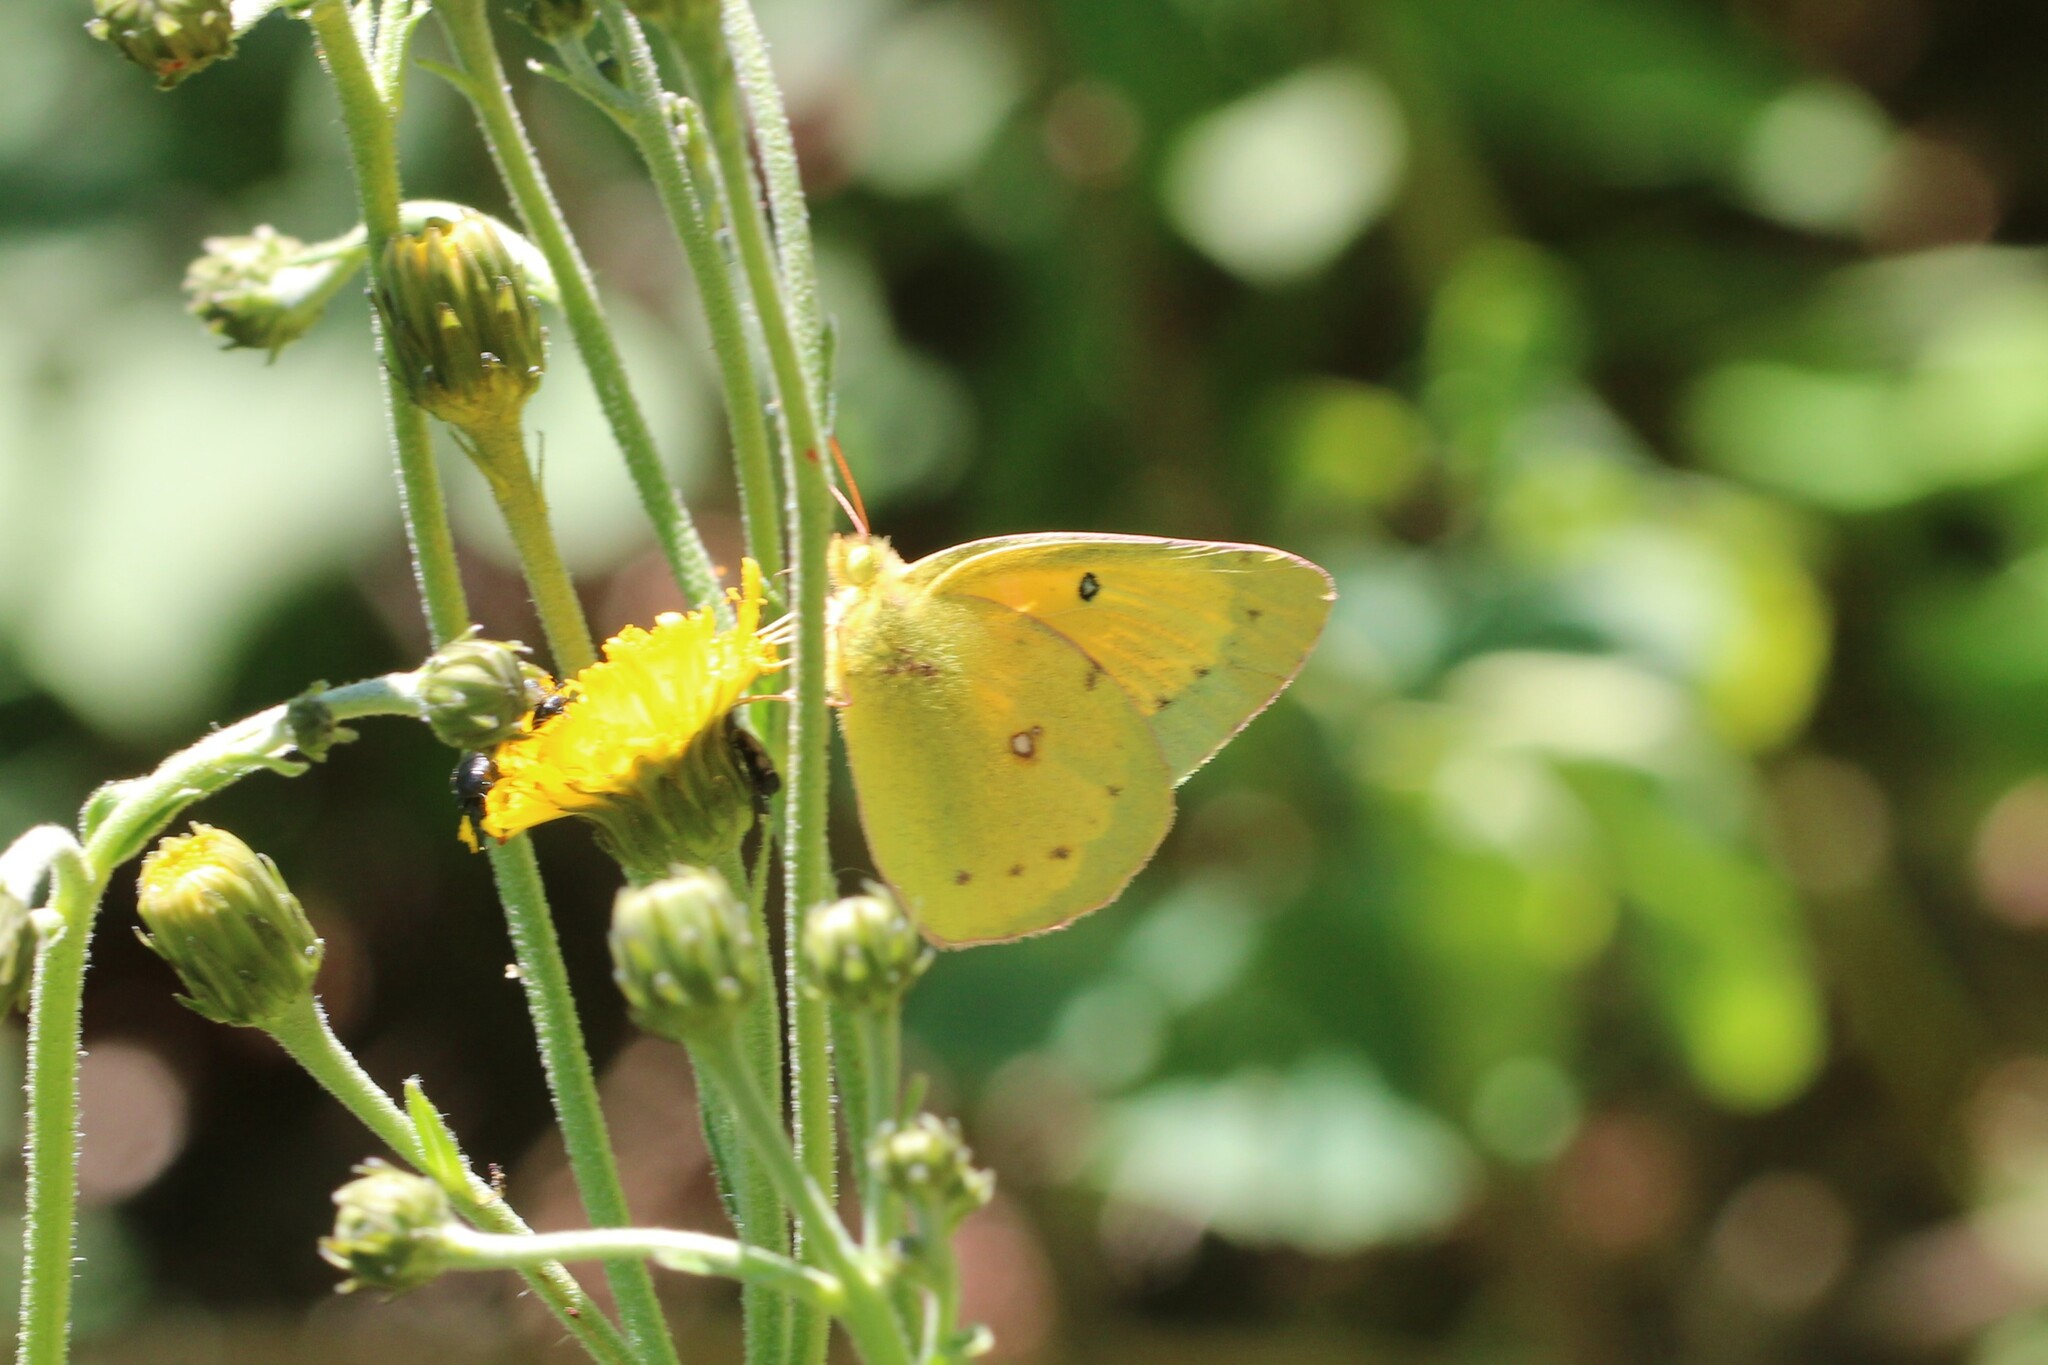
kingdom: Animalia
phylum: Arthropoda
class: Insecta
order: Lepidoptera
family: Pieridae
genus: Colias
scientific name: Colias eurytheme
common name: Alfalfa butterfly
